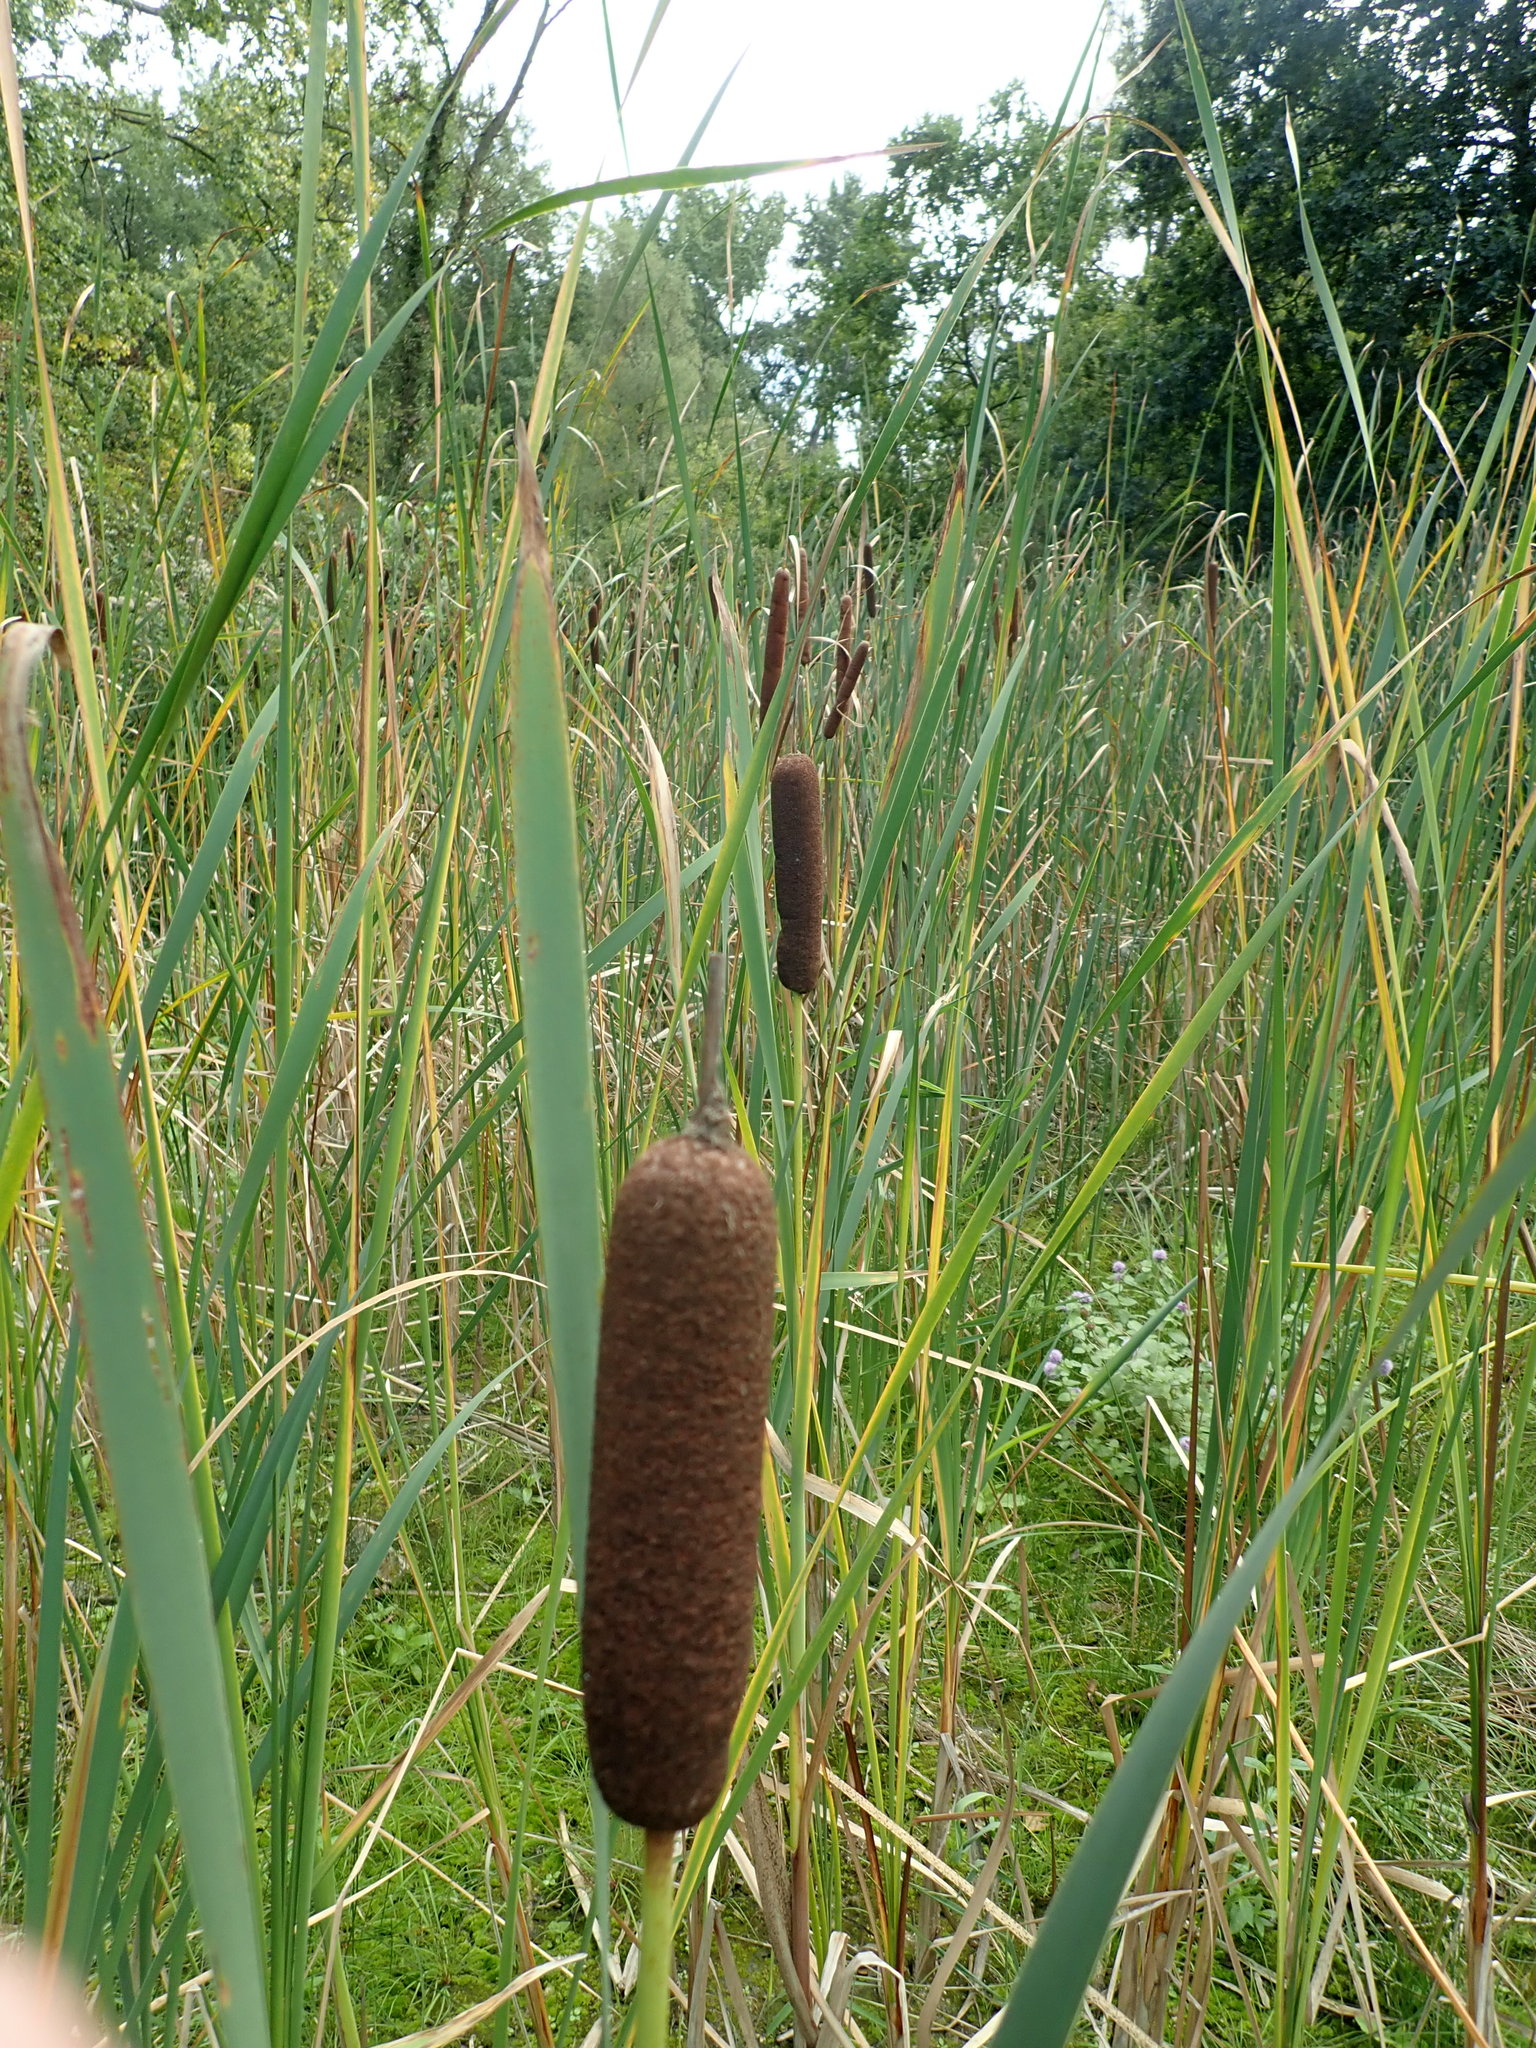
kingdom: Plantae
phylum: Tracheophyta
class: Liliopsida
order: Poales
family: Typhaceae
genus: Typha
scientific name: Typha latifolia
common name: Broadleaf cattail
